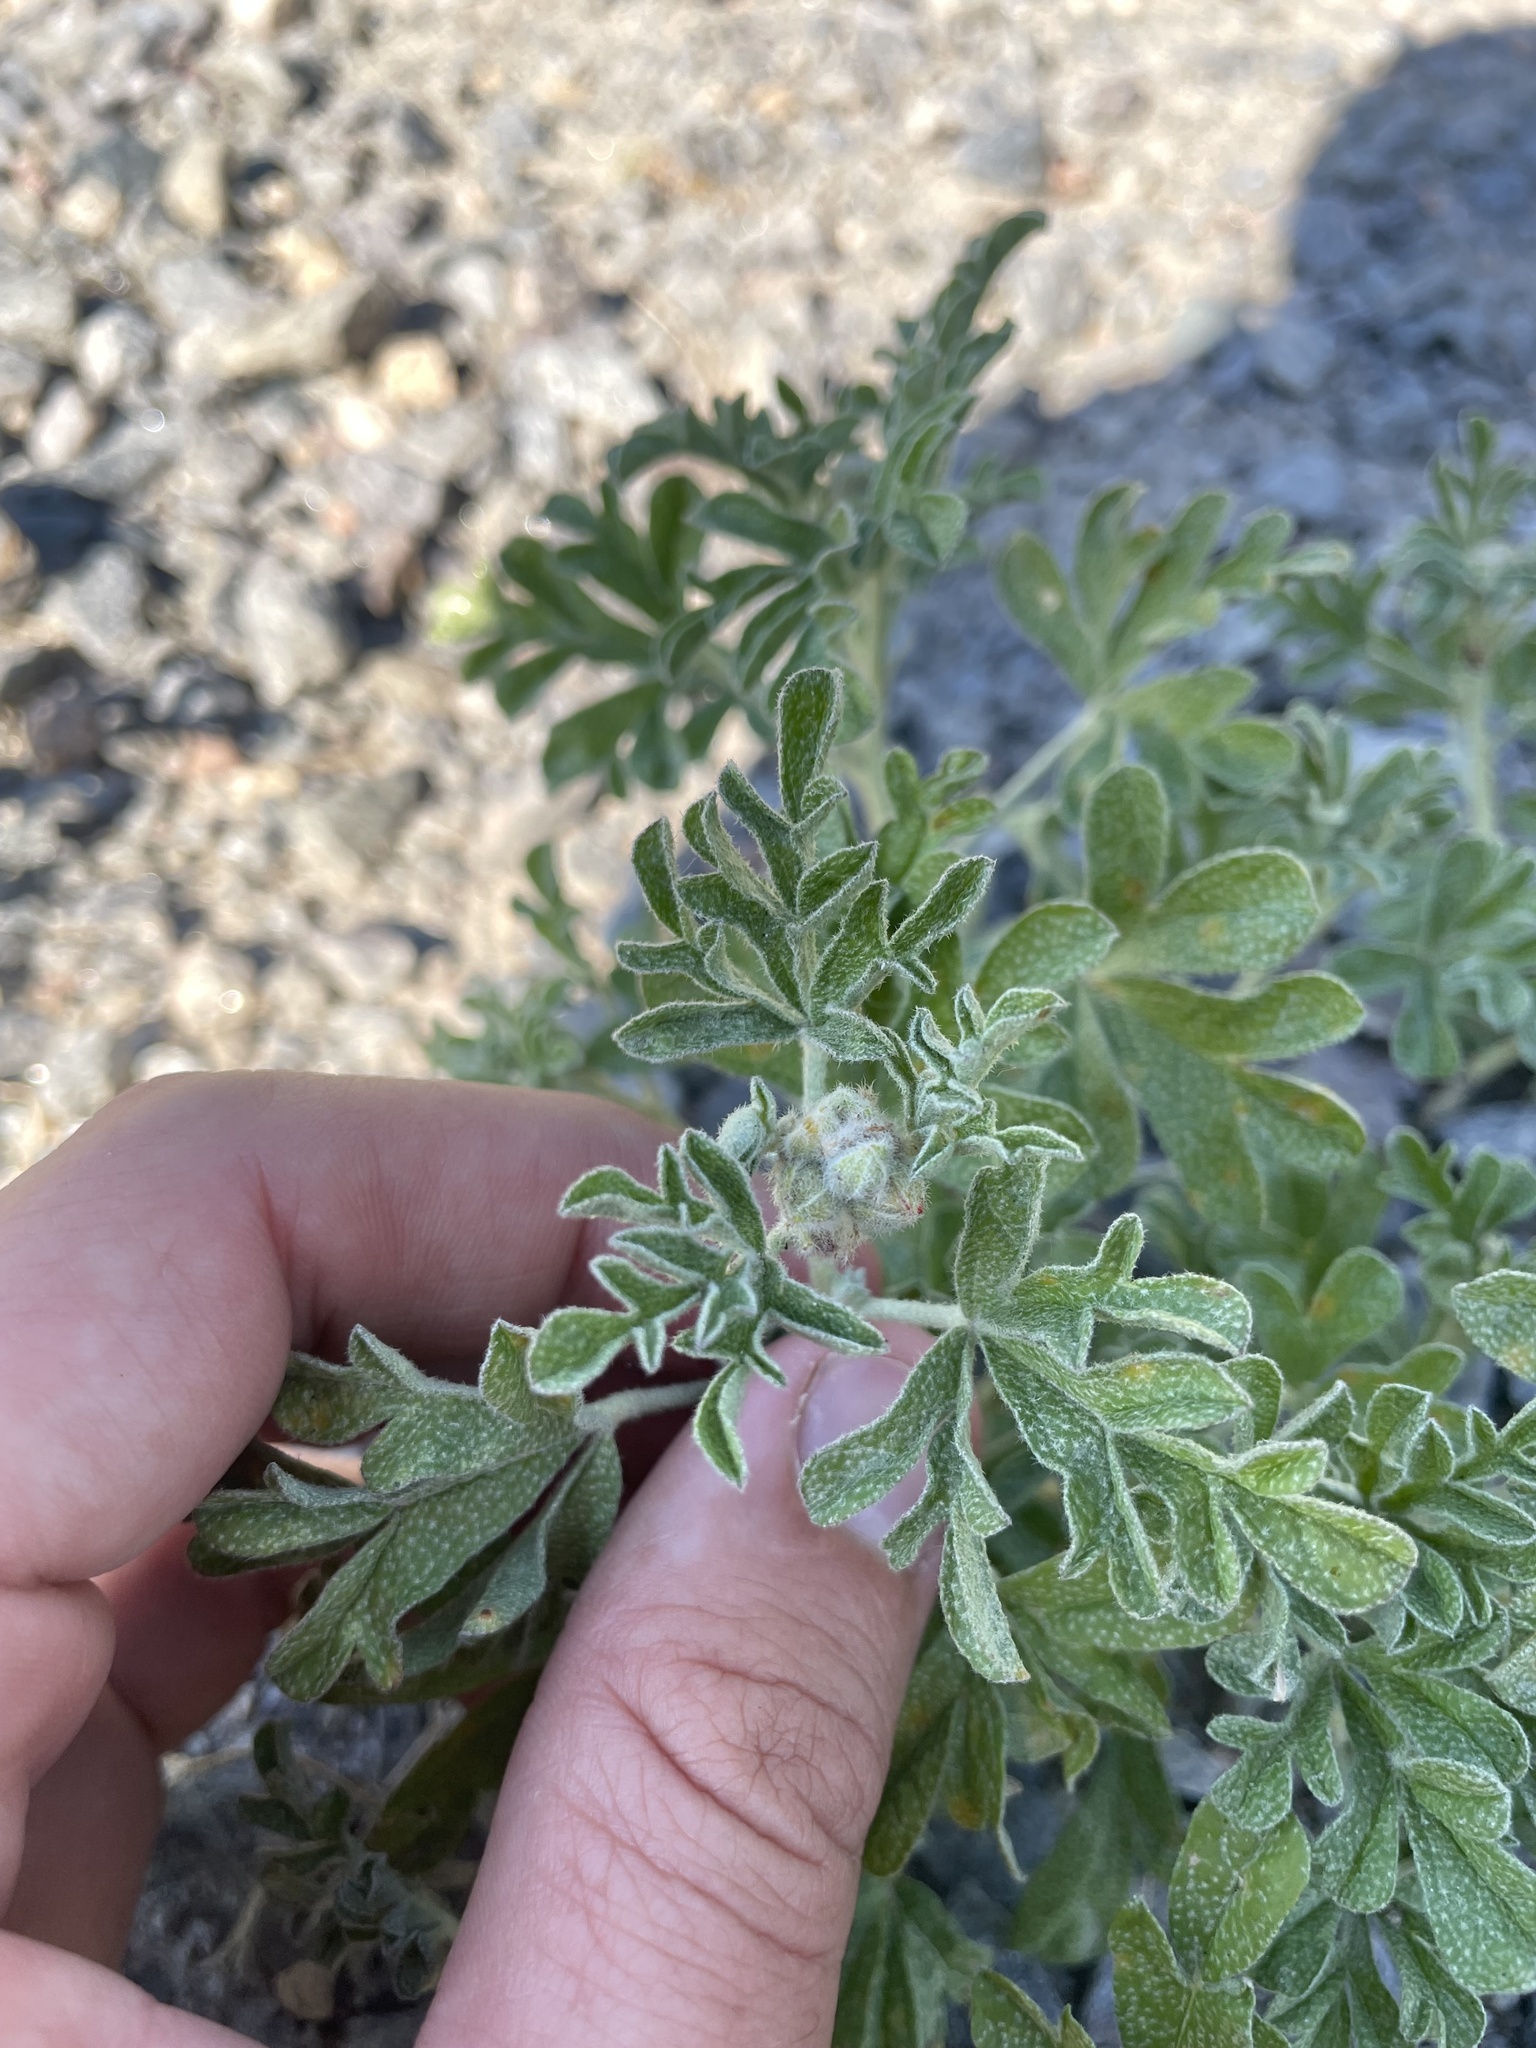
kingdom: Plantae
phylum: Tracheophyta
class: Magnoliopsida
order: Malvales
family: Malvaceae
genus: Sphaeralcea
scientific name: Sphaeralcea coccinea
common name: Moss-rose
